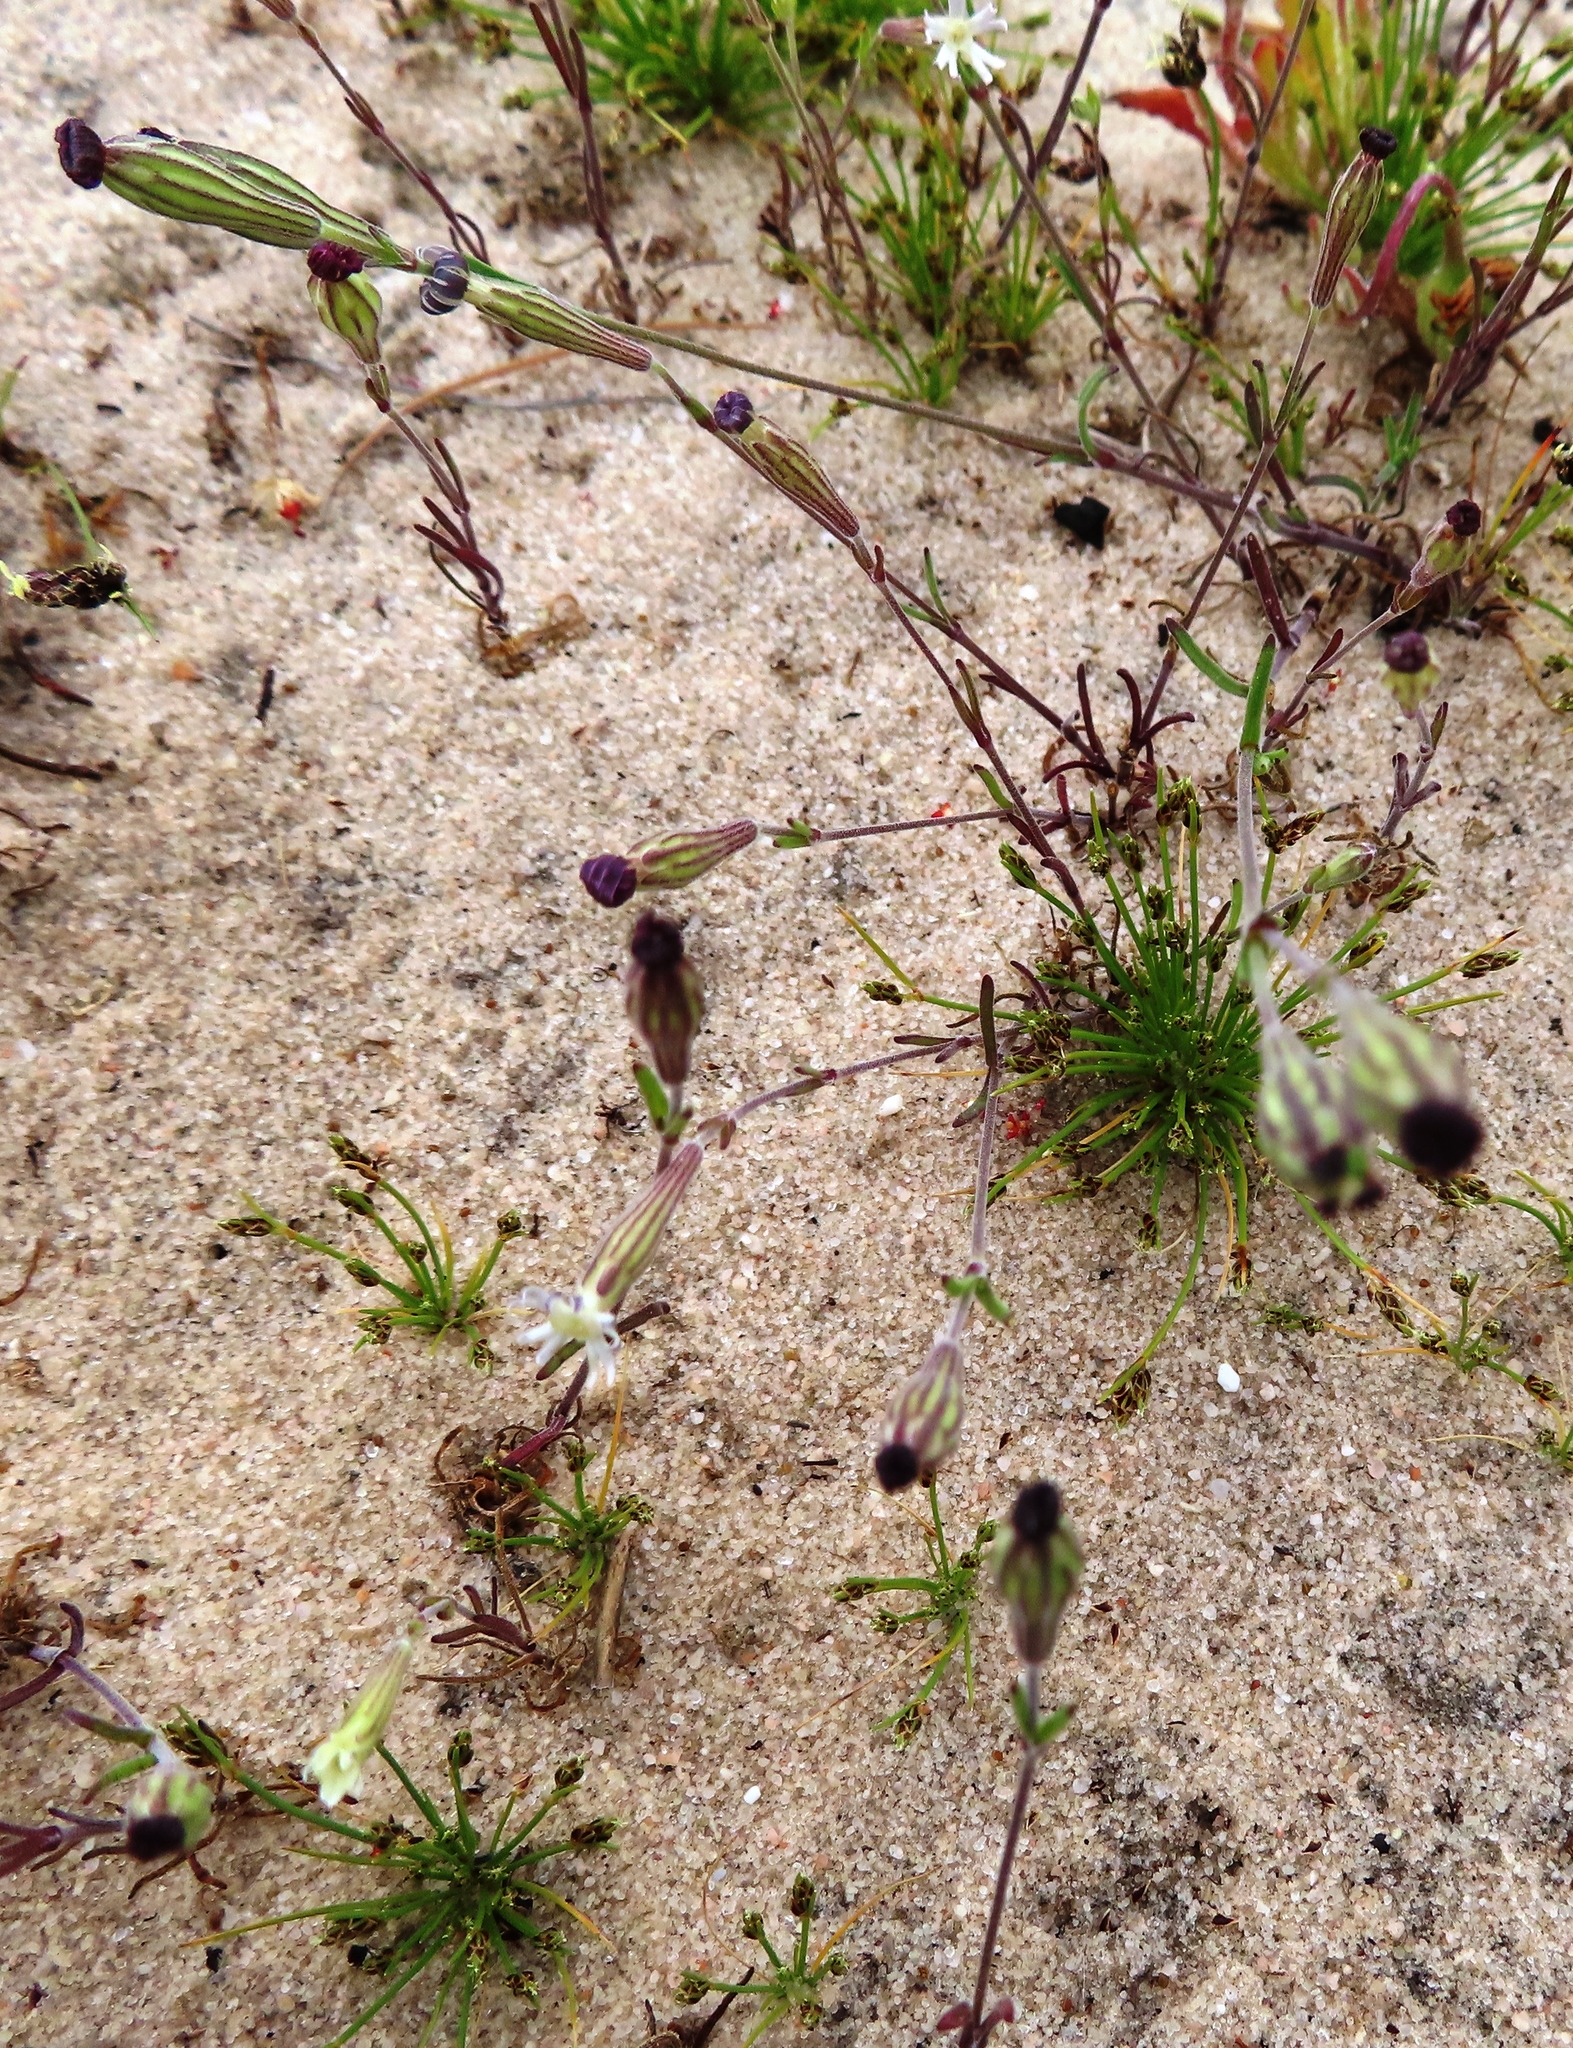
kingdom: Plantae
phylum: Tracheophyta
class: Magnoliopsida
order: Caryophyllales
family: Caryophyllaceae
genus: Silene
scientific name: Silene aethiopica
